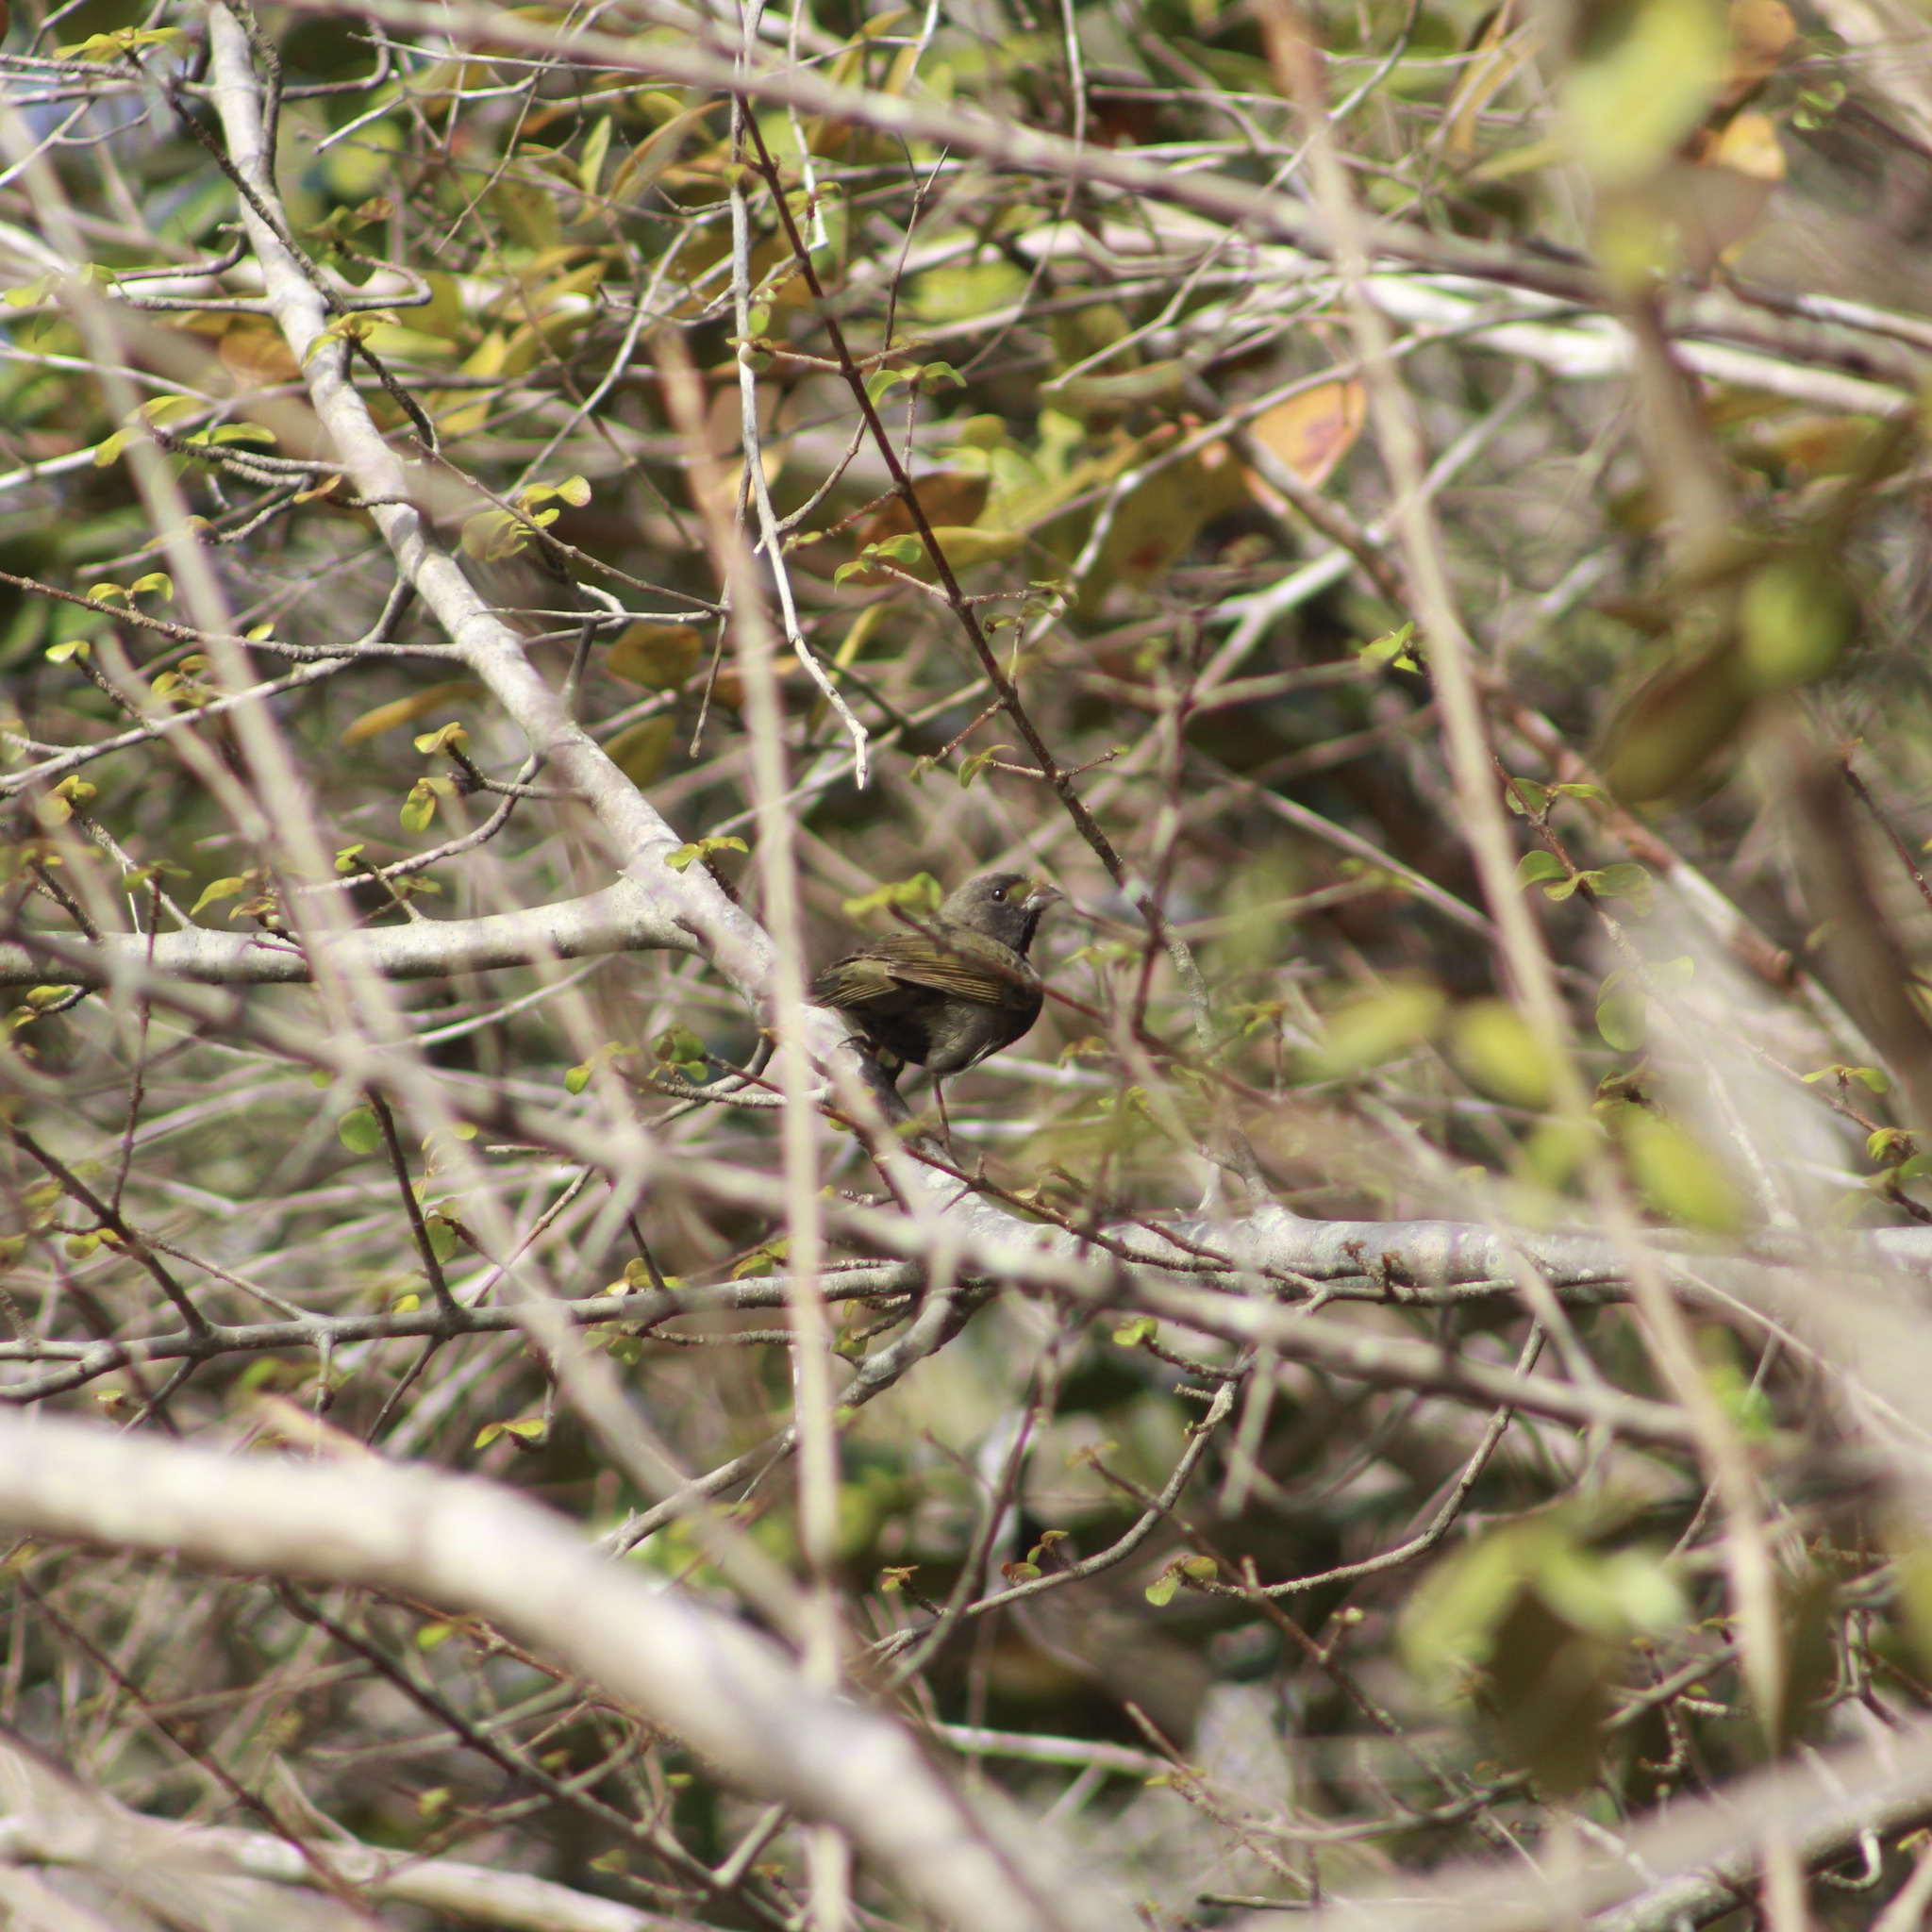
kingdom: Animalia
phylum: Chordata
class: Aves
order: Passeriformes
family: Thraupidae
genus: Melanospiza
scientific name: Melanospiza bicolor
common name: Black-faced grassquit
